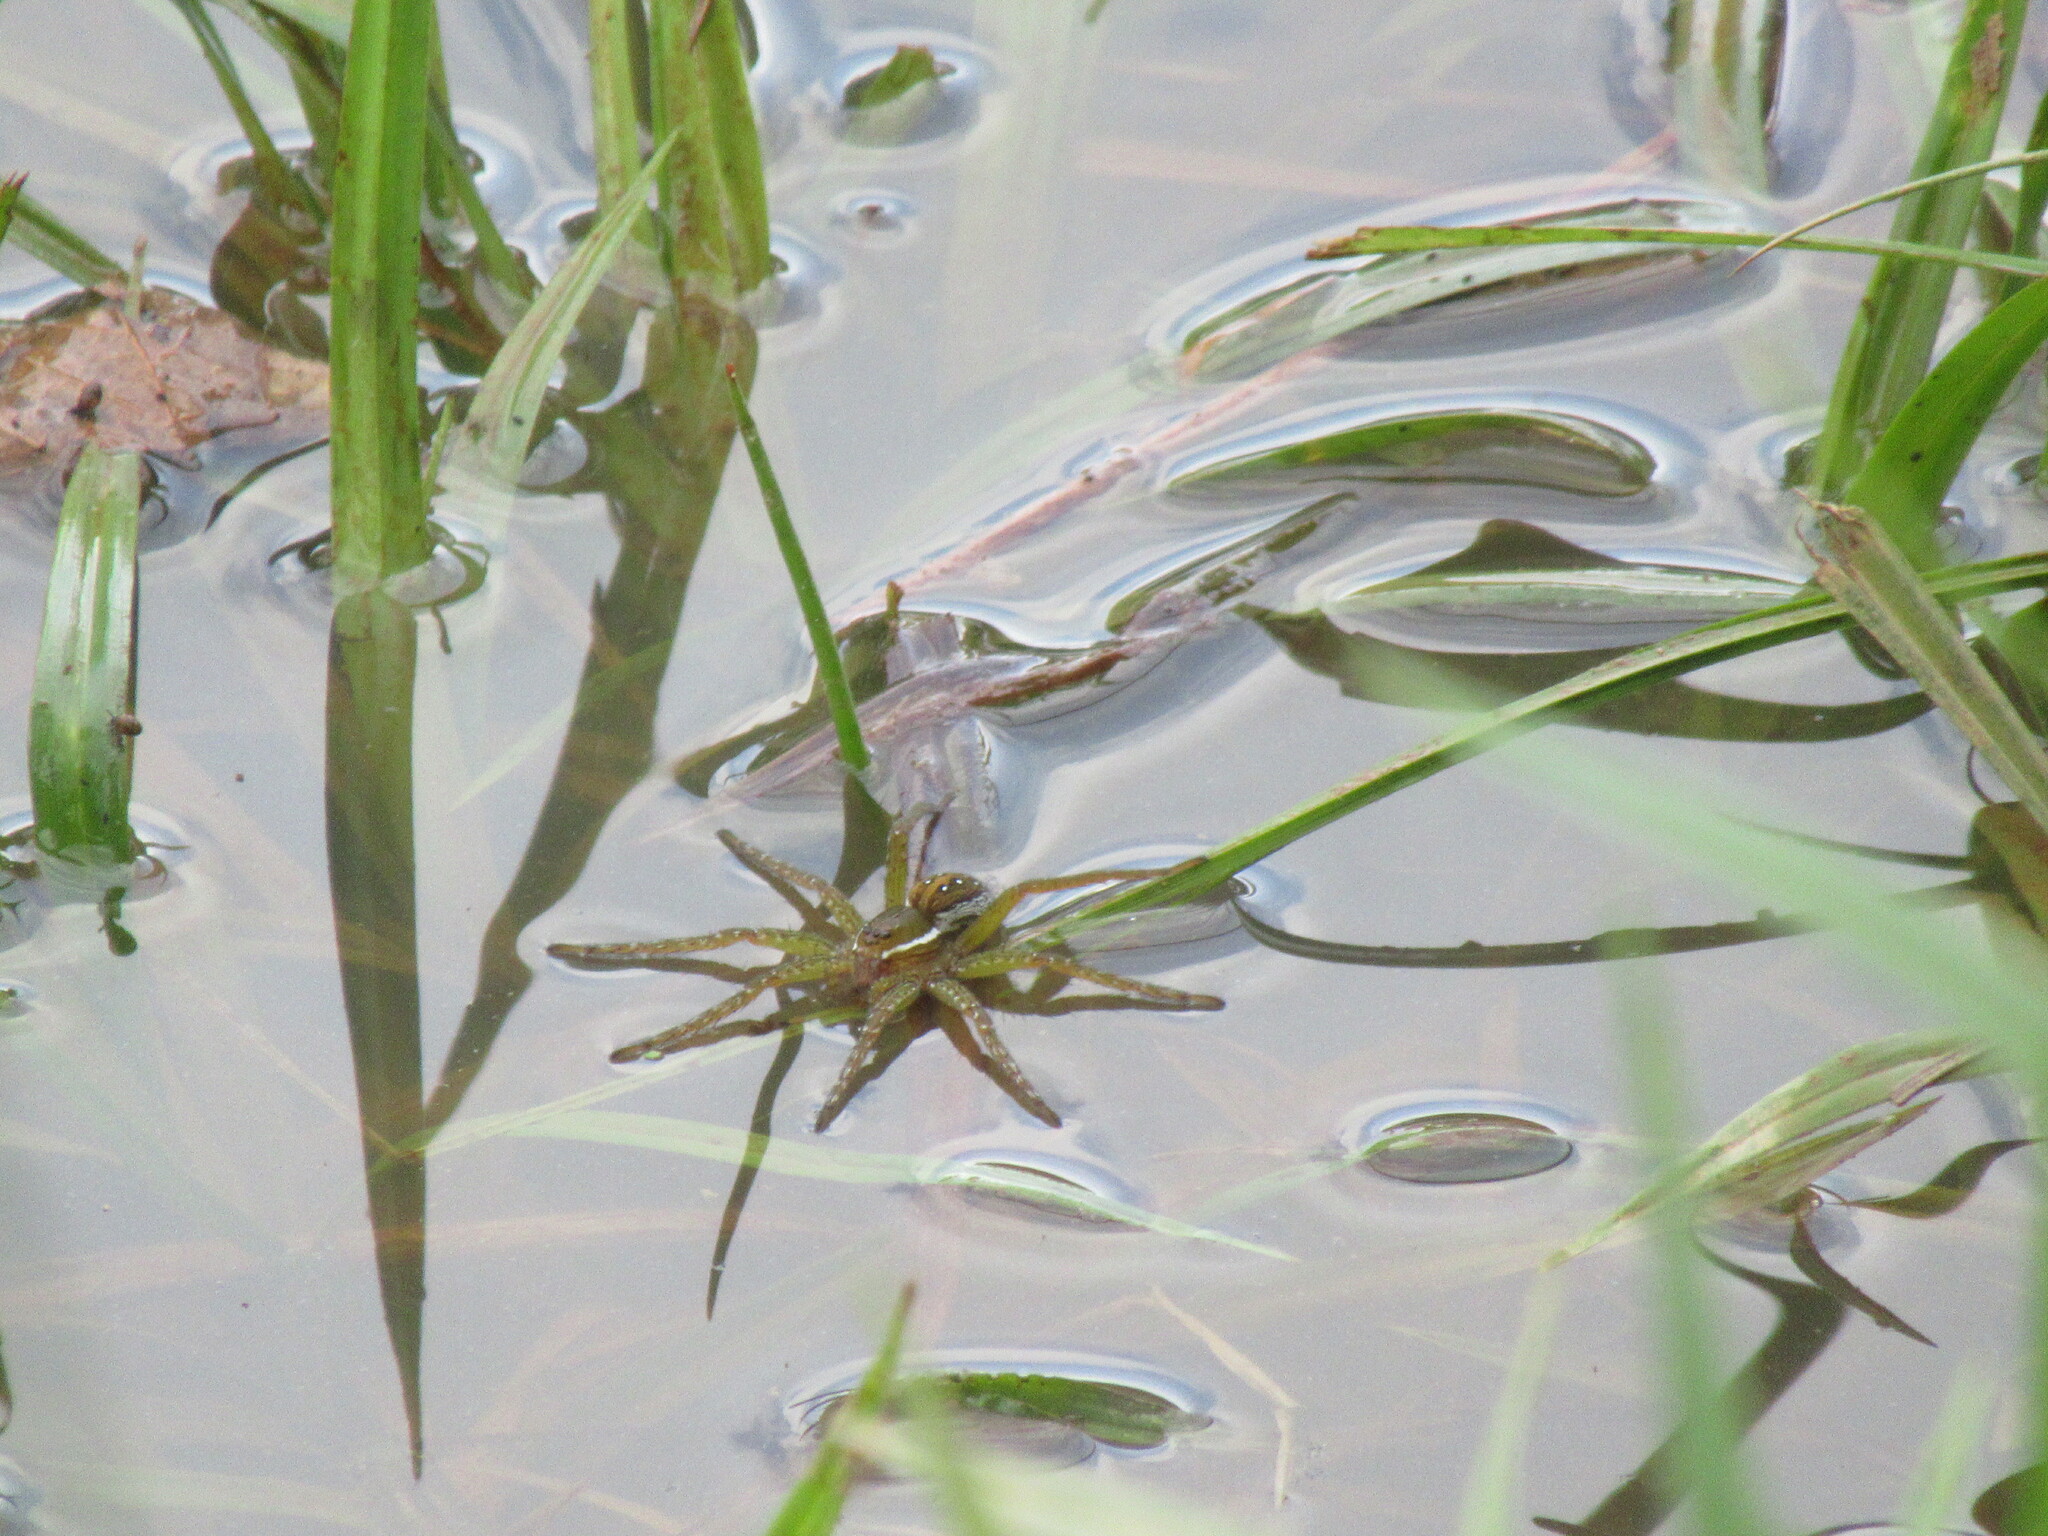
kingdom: Animalia
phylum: Arthropoda
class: Arachnida
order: Araneae
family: Pisauridae
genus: Dolomedes
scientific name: Dolomedes triton
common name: Six-spotted fishing spider
